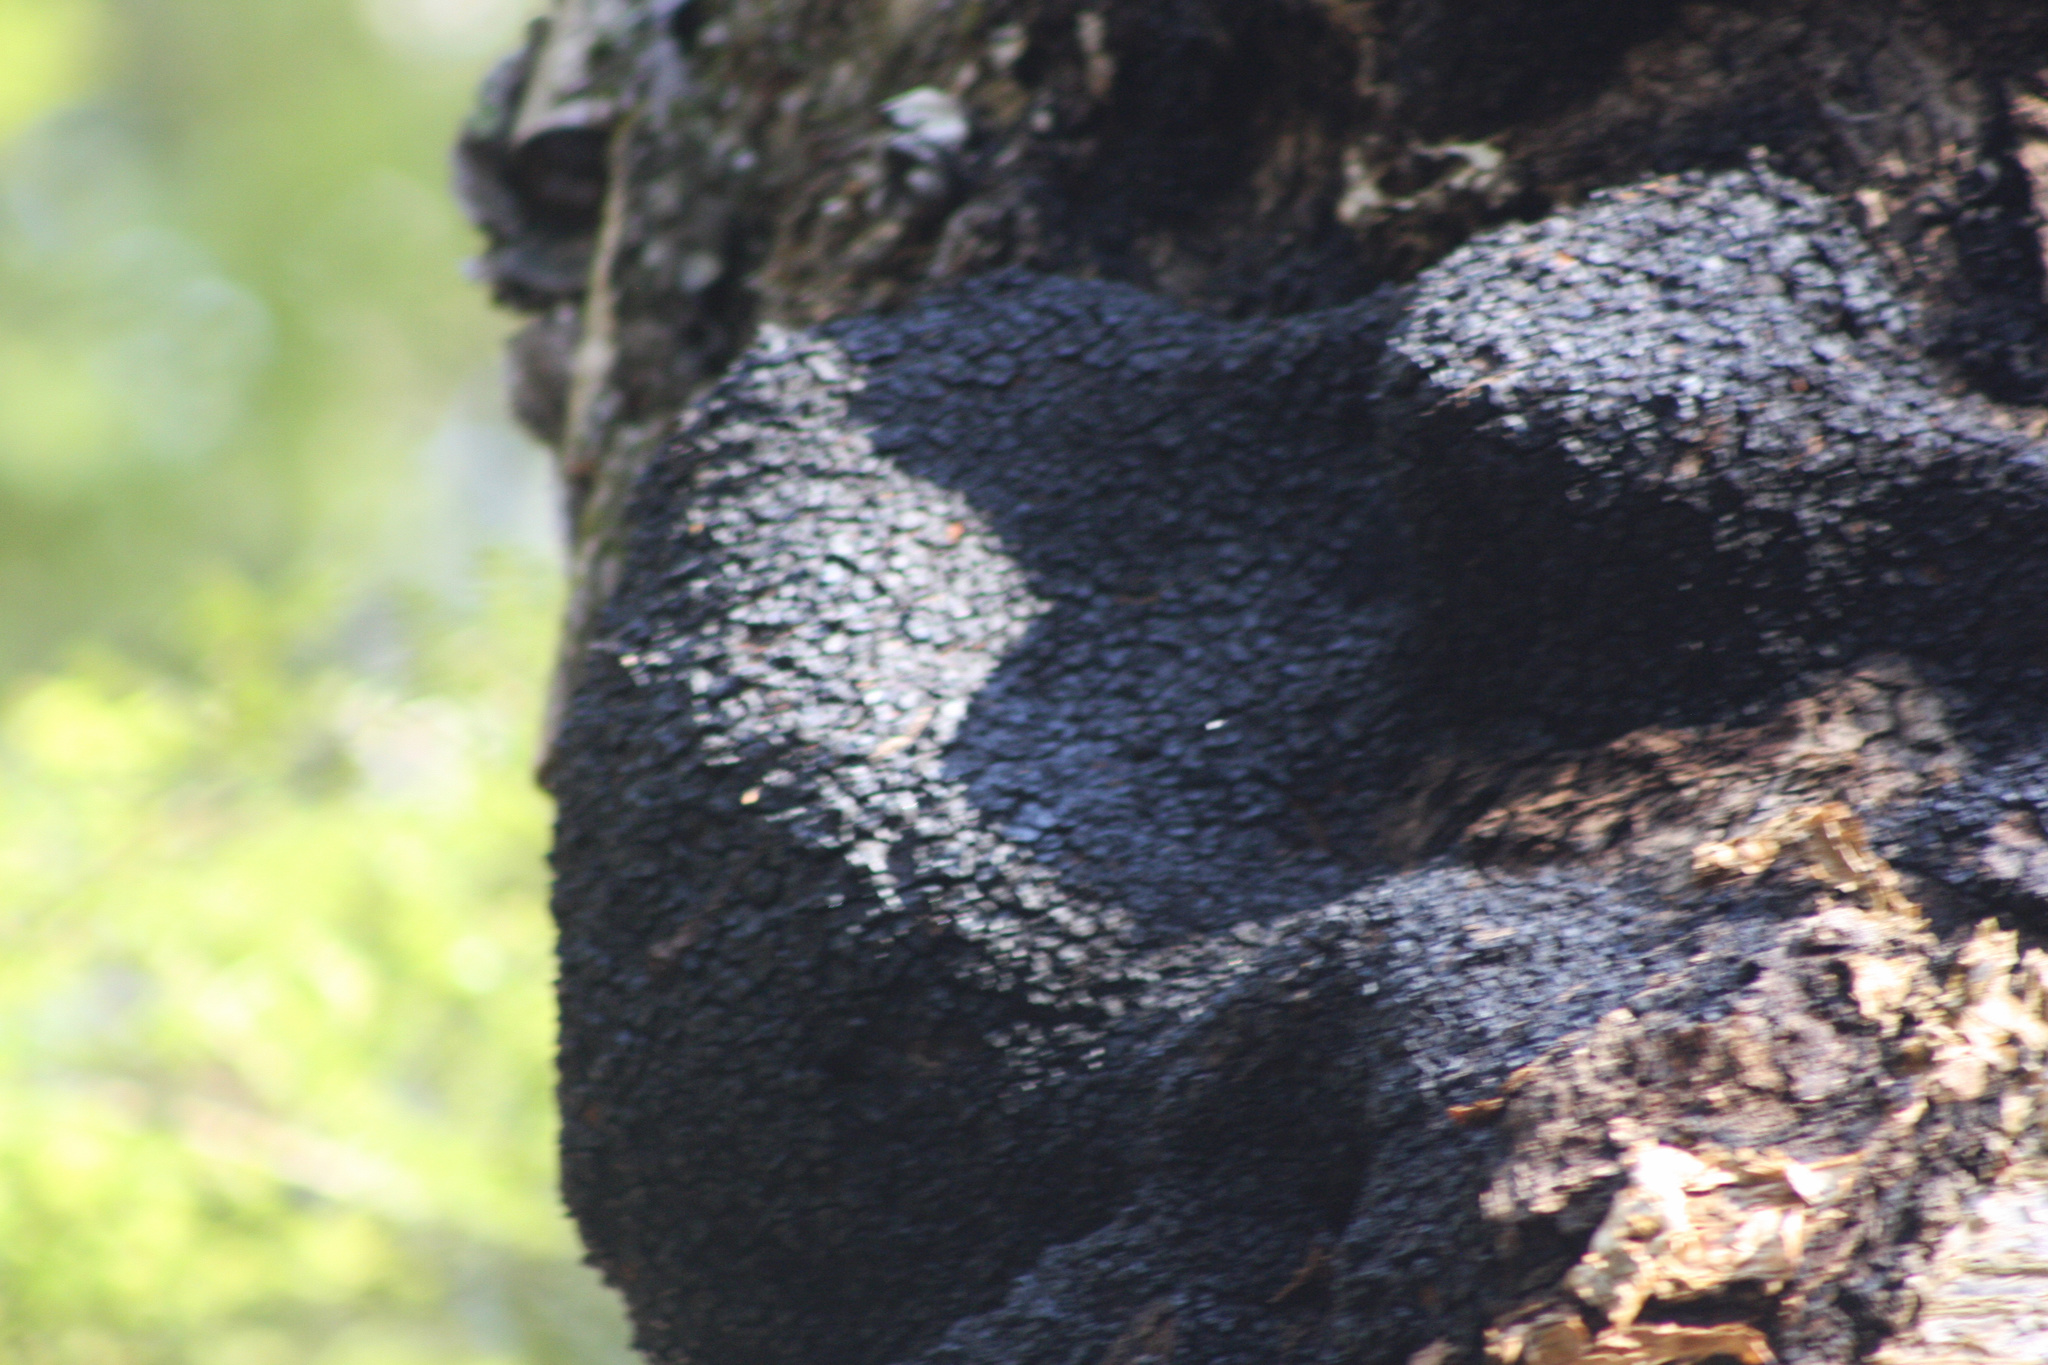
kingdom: Fungi
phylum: Basidiomycota
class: Agaricomycetes
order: Hymenochaetales
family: Hymenochaetaceae
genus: Inonotus
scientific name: Inonotus obliquus
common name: Chaga
